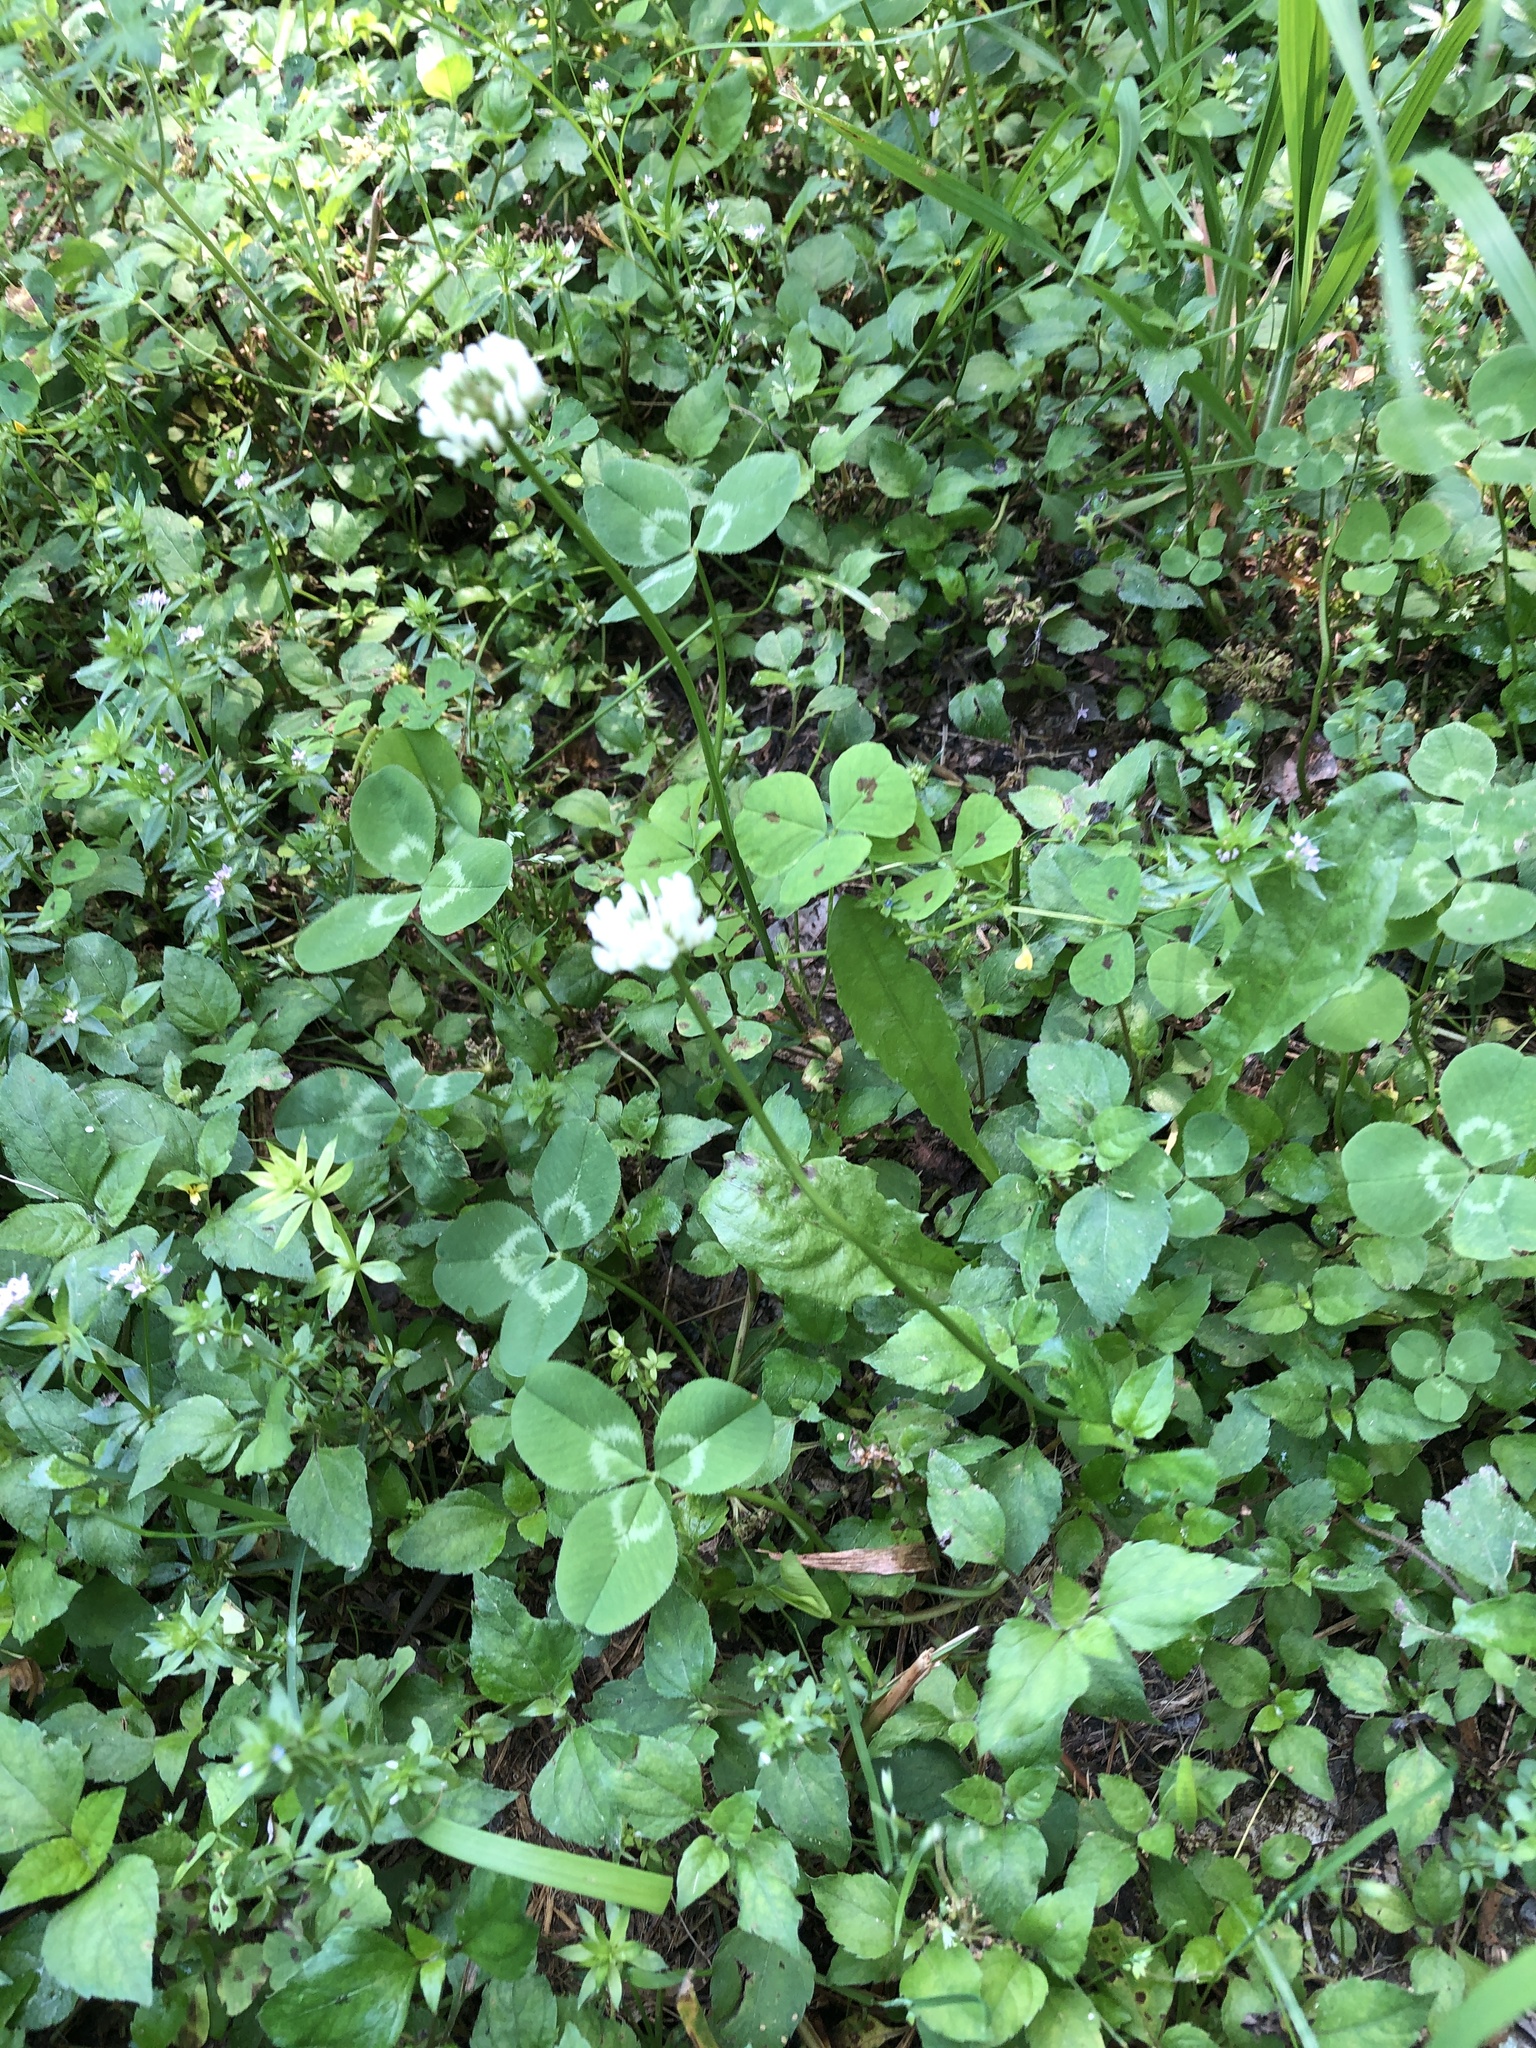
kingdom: Plantae
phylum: Tracheophyta
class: Magnoliopsida
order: Fabales
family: Fabaceae
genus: Trifolium
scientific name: Trifolium repens
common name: White clover
